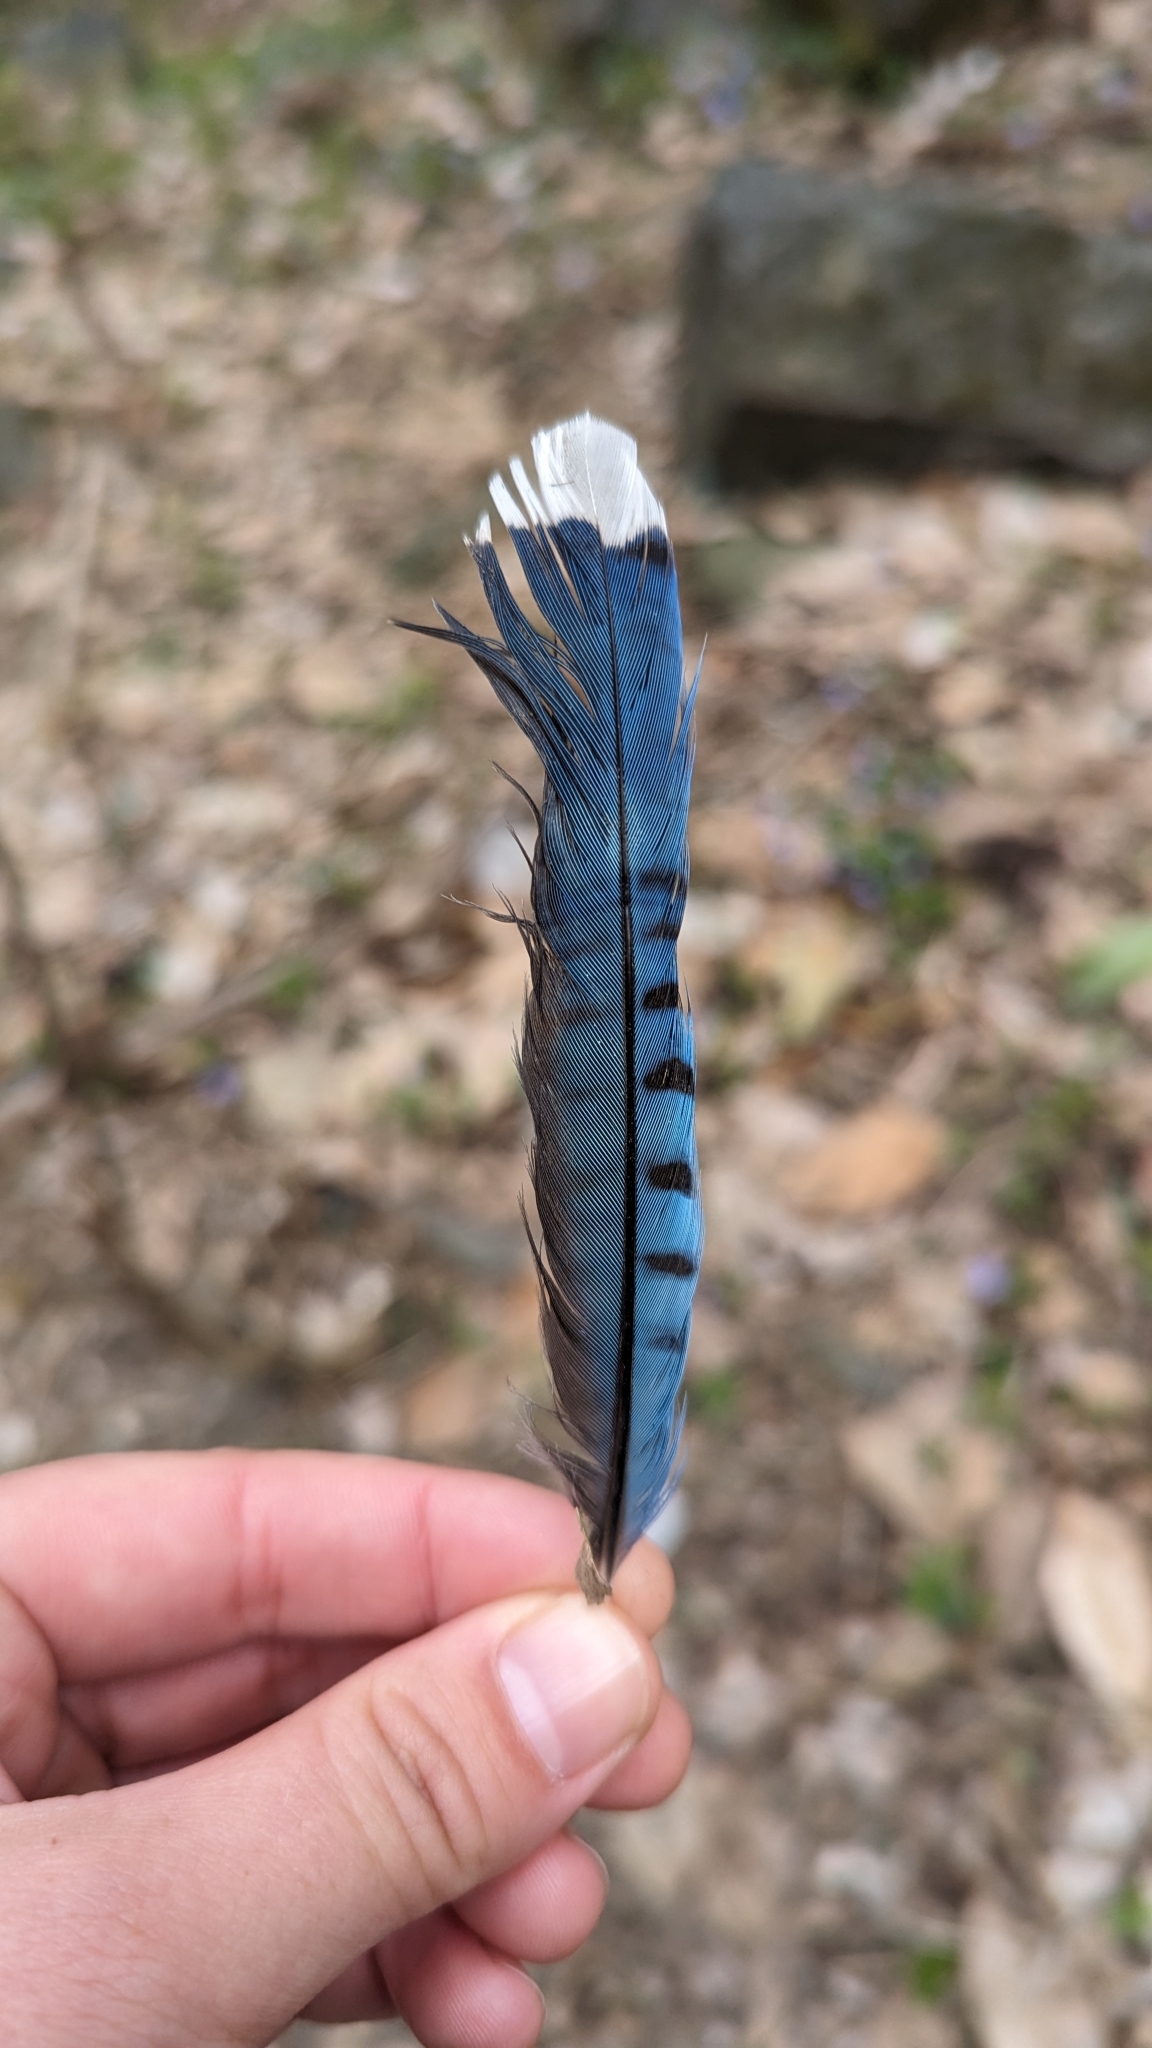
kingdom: Animalia
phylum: Chordata
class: Aves
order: Passeriformes
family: Corvidae
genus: Cyanocitta
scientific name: Cyanocitta cristata
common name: Blue jay
